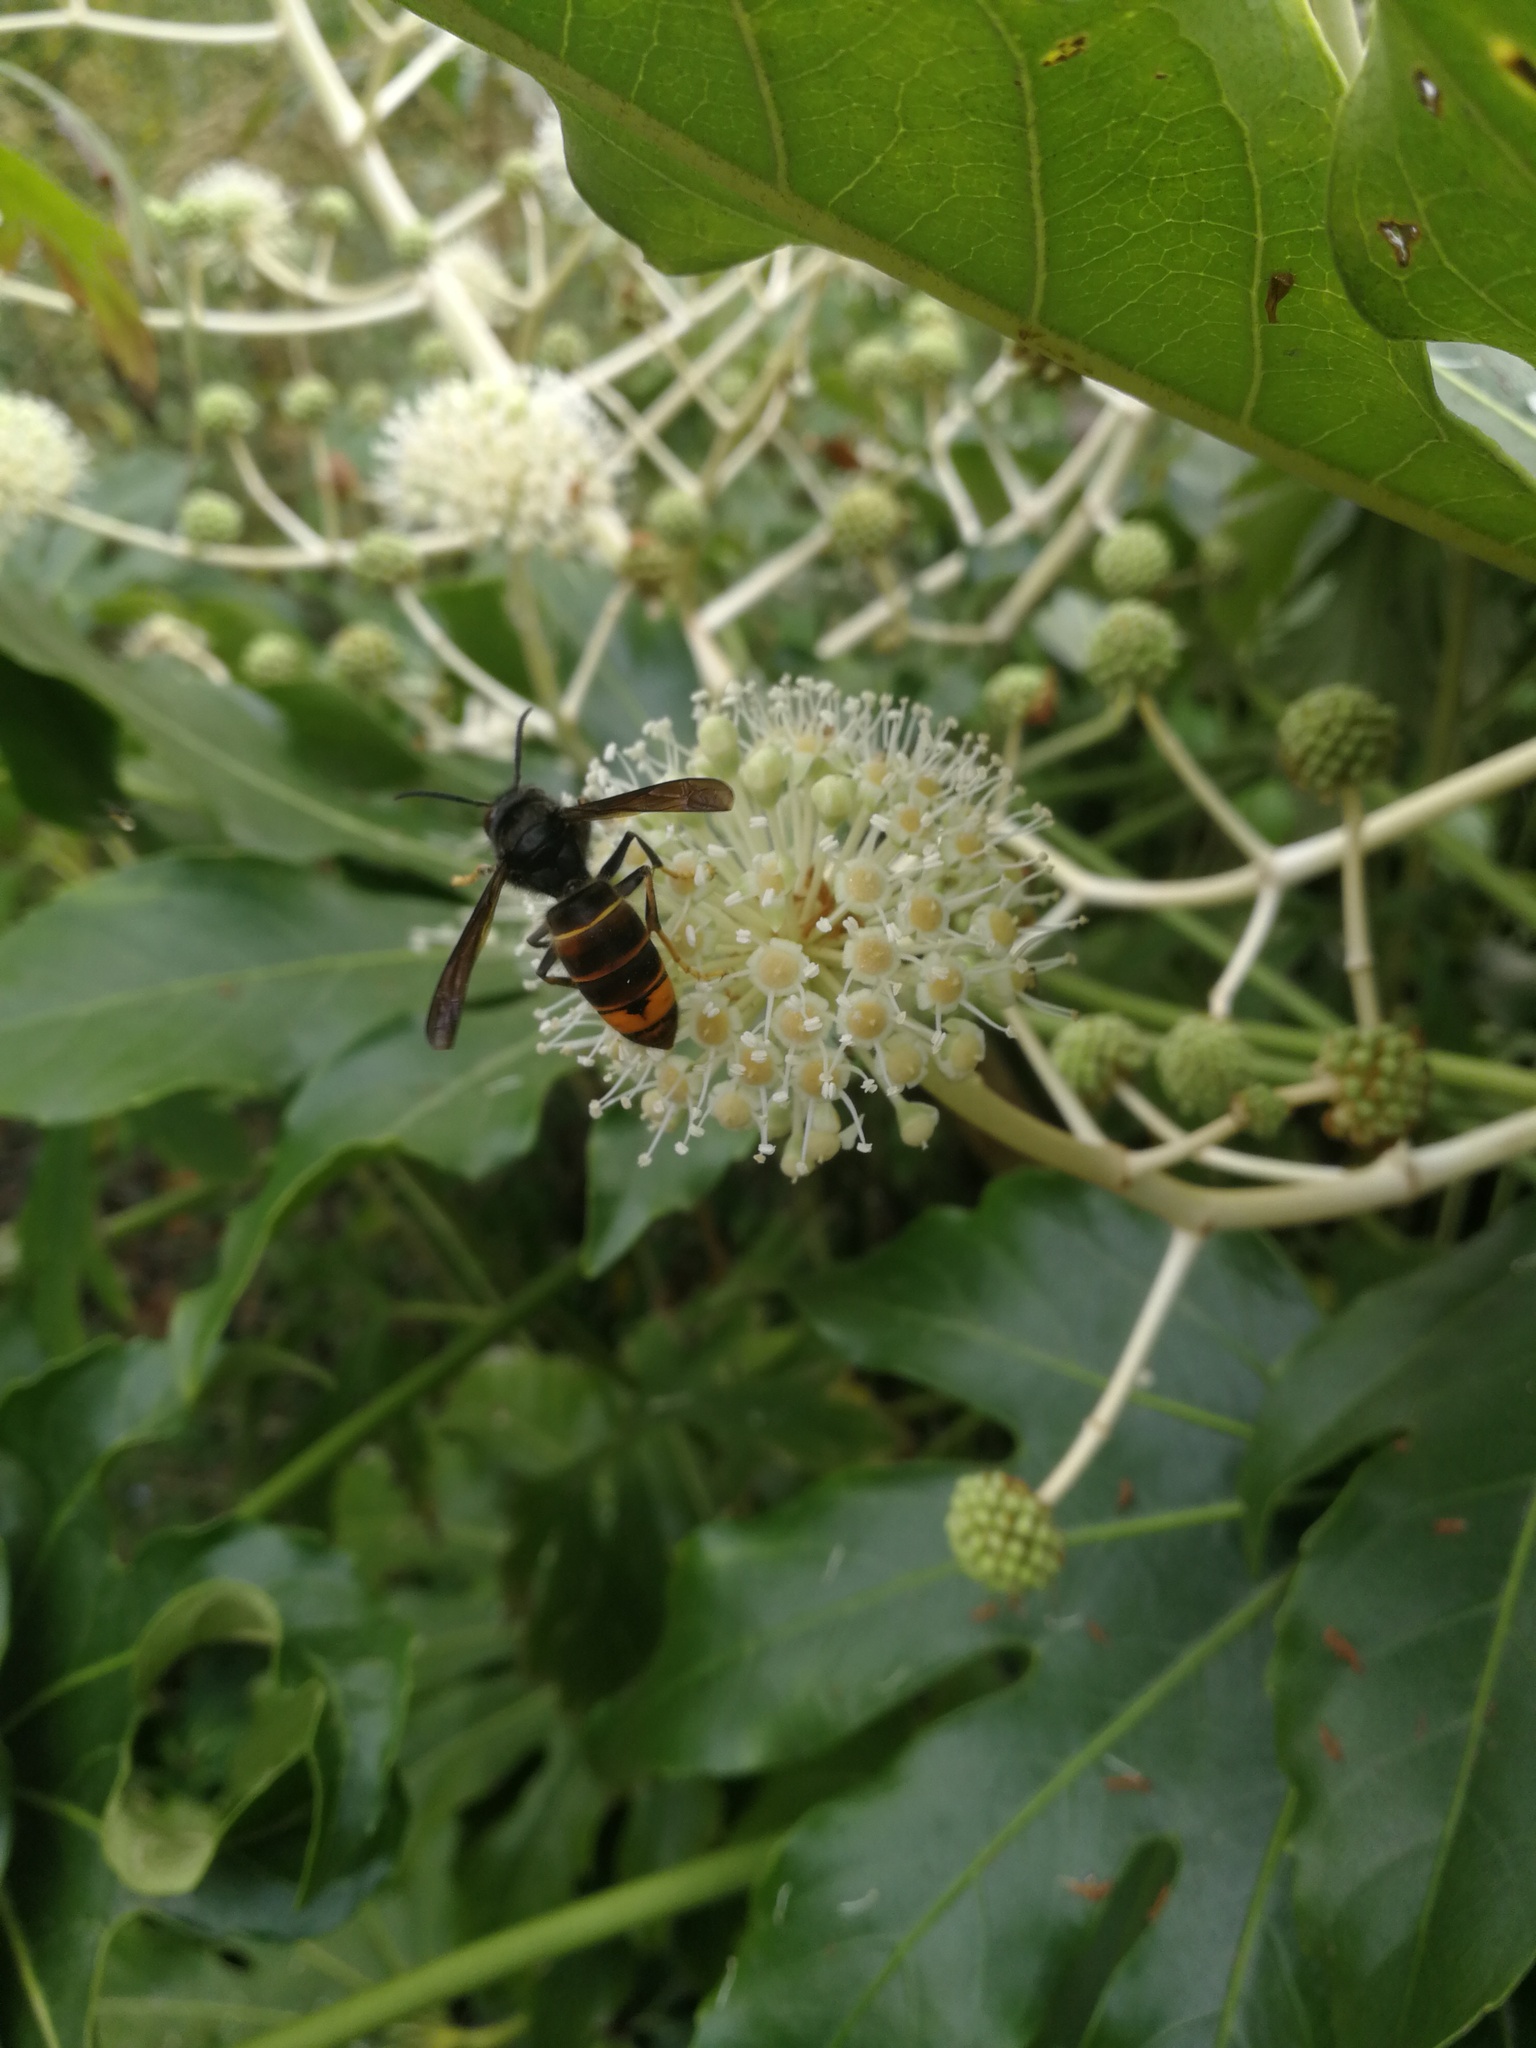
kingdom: Animalia
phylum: Arthropoda
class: Insecta
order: Hymenoptera
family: Vespidae
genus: Vespa
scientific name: Vespa velutina
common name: Asian hornet
